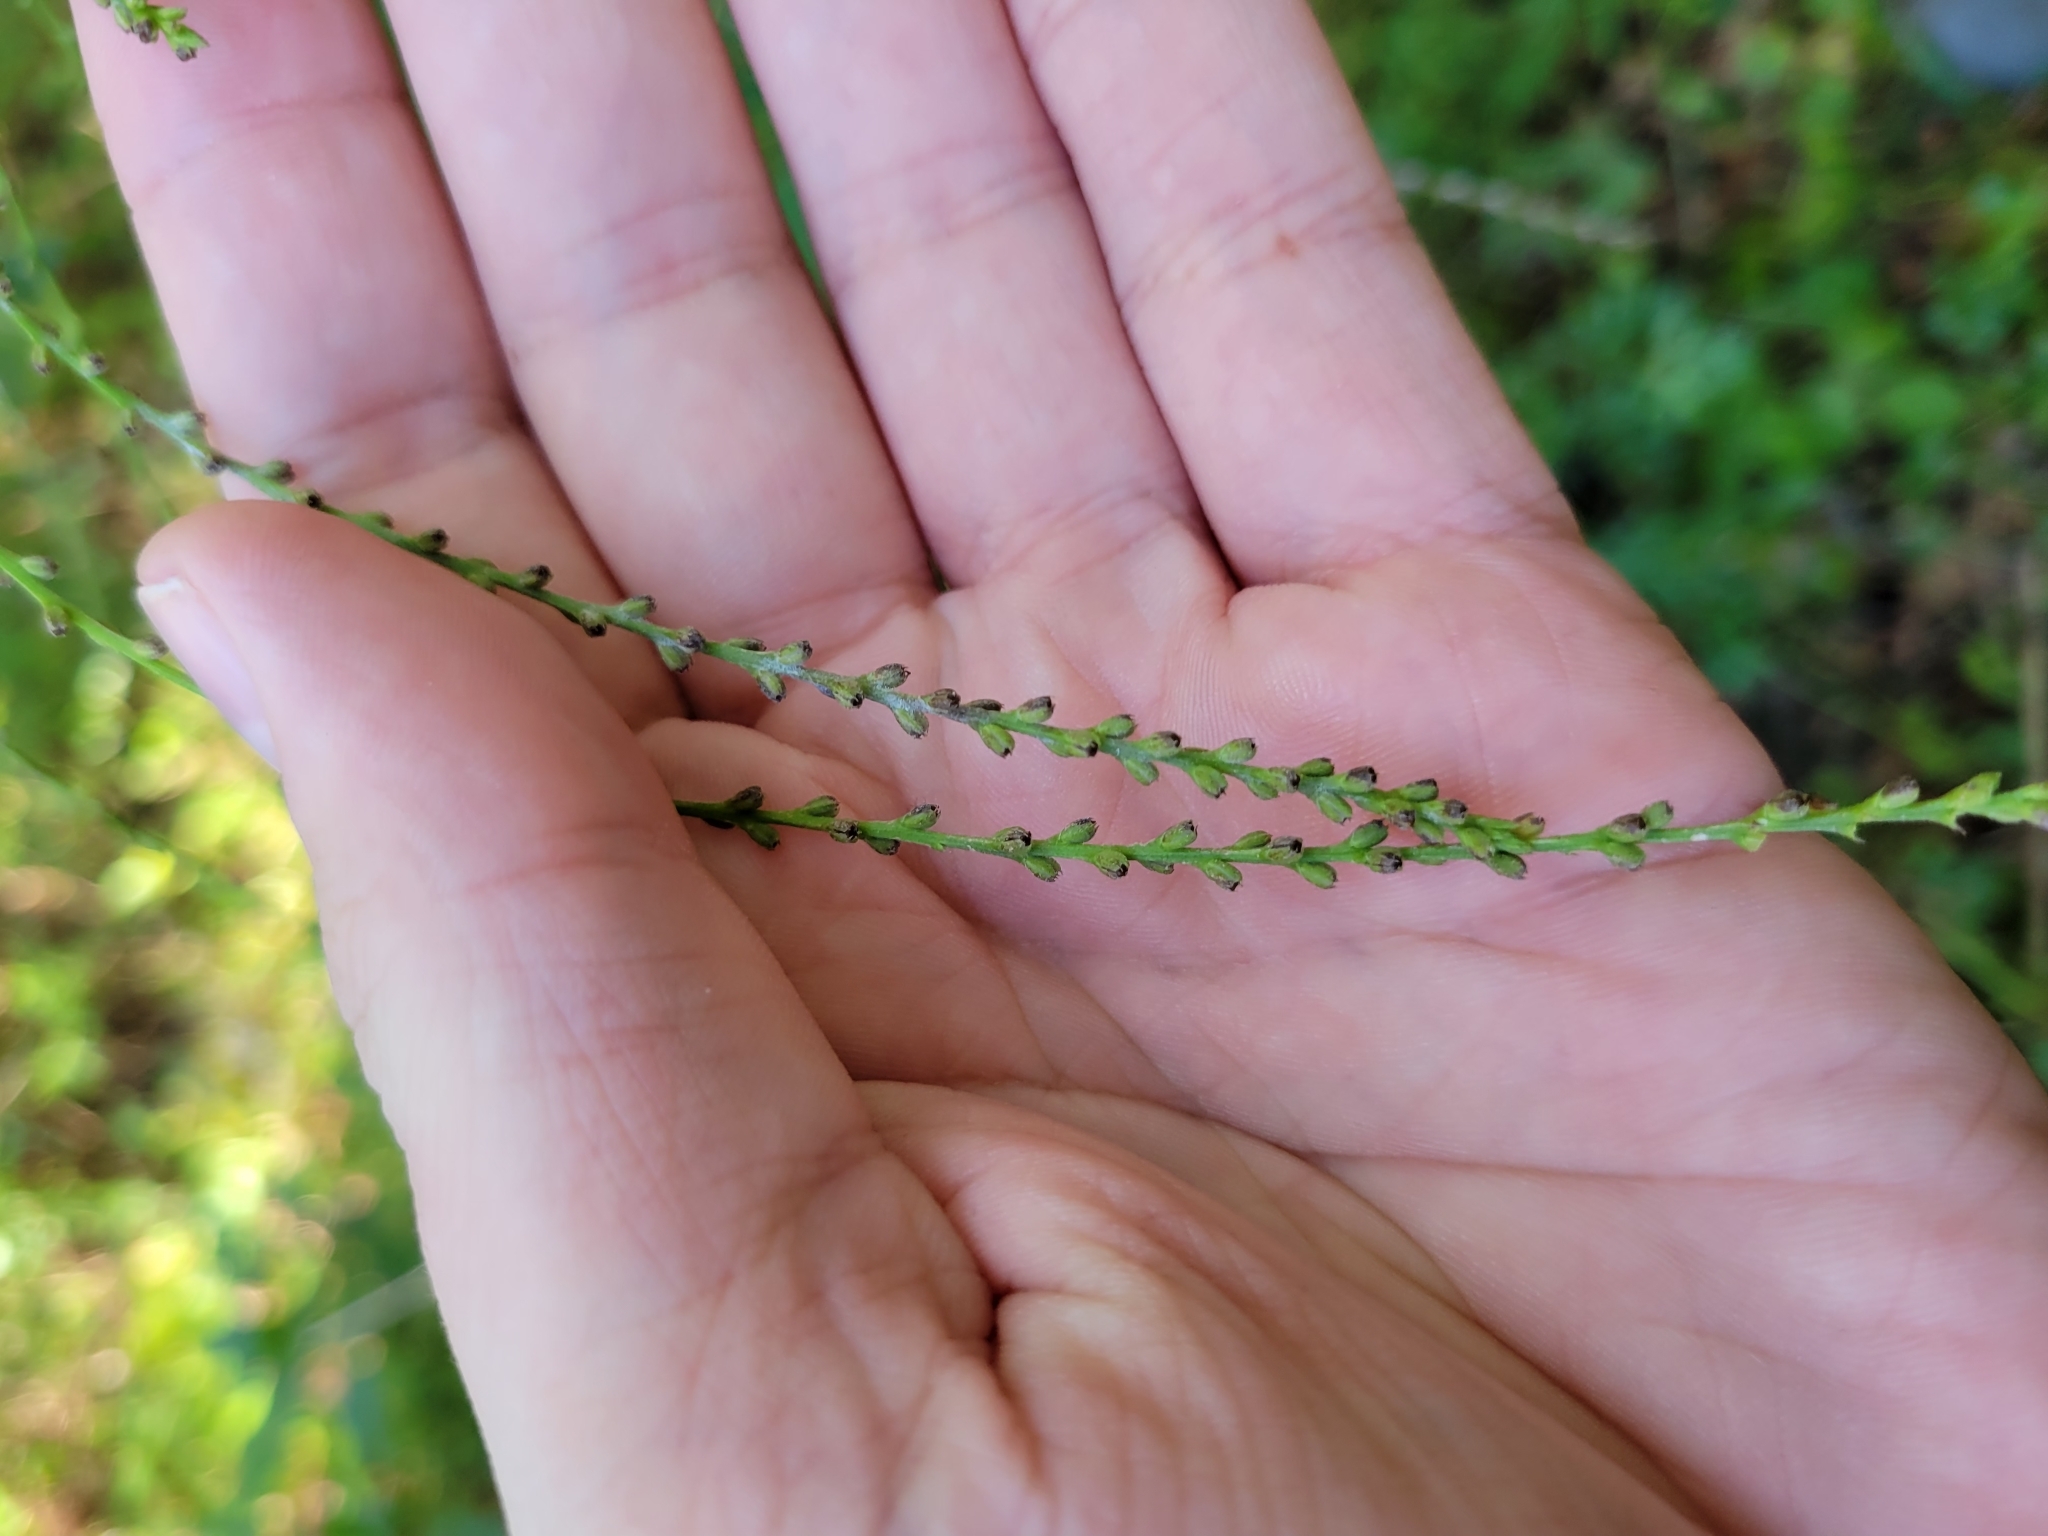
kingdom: Plantae
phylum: Tracheophyta
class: Magnoliopsida
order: Lamiales
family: Verbenaceae
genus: Verbena
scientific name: Verbena urticifolia
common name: Nettle-leaved vervain
